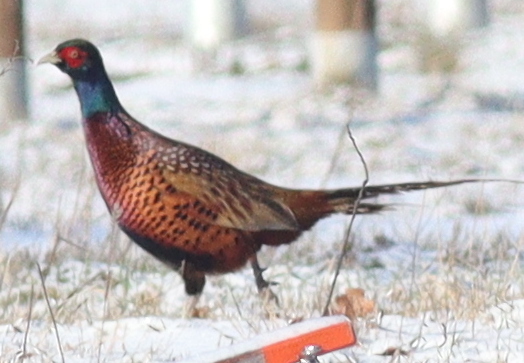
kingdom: Animalia
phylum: Chordata
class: Aves
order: Galliformes
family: Phasianidae
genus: Phasianus
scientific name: Phasianus colchicus
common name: Common pheasant
